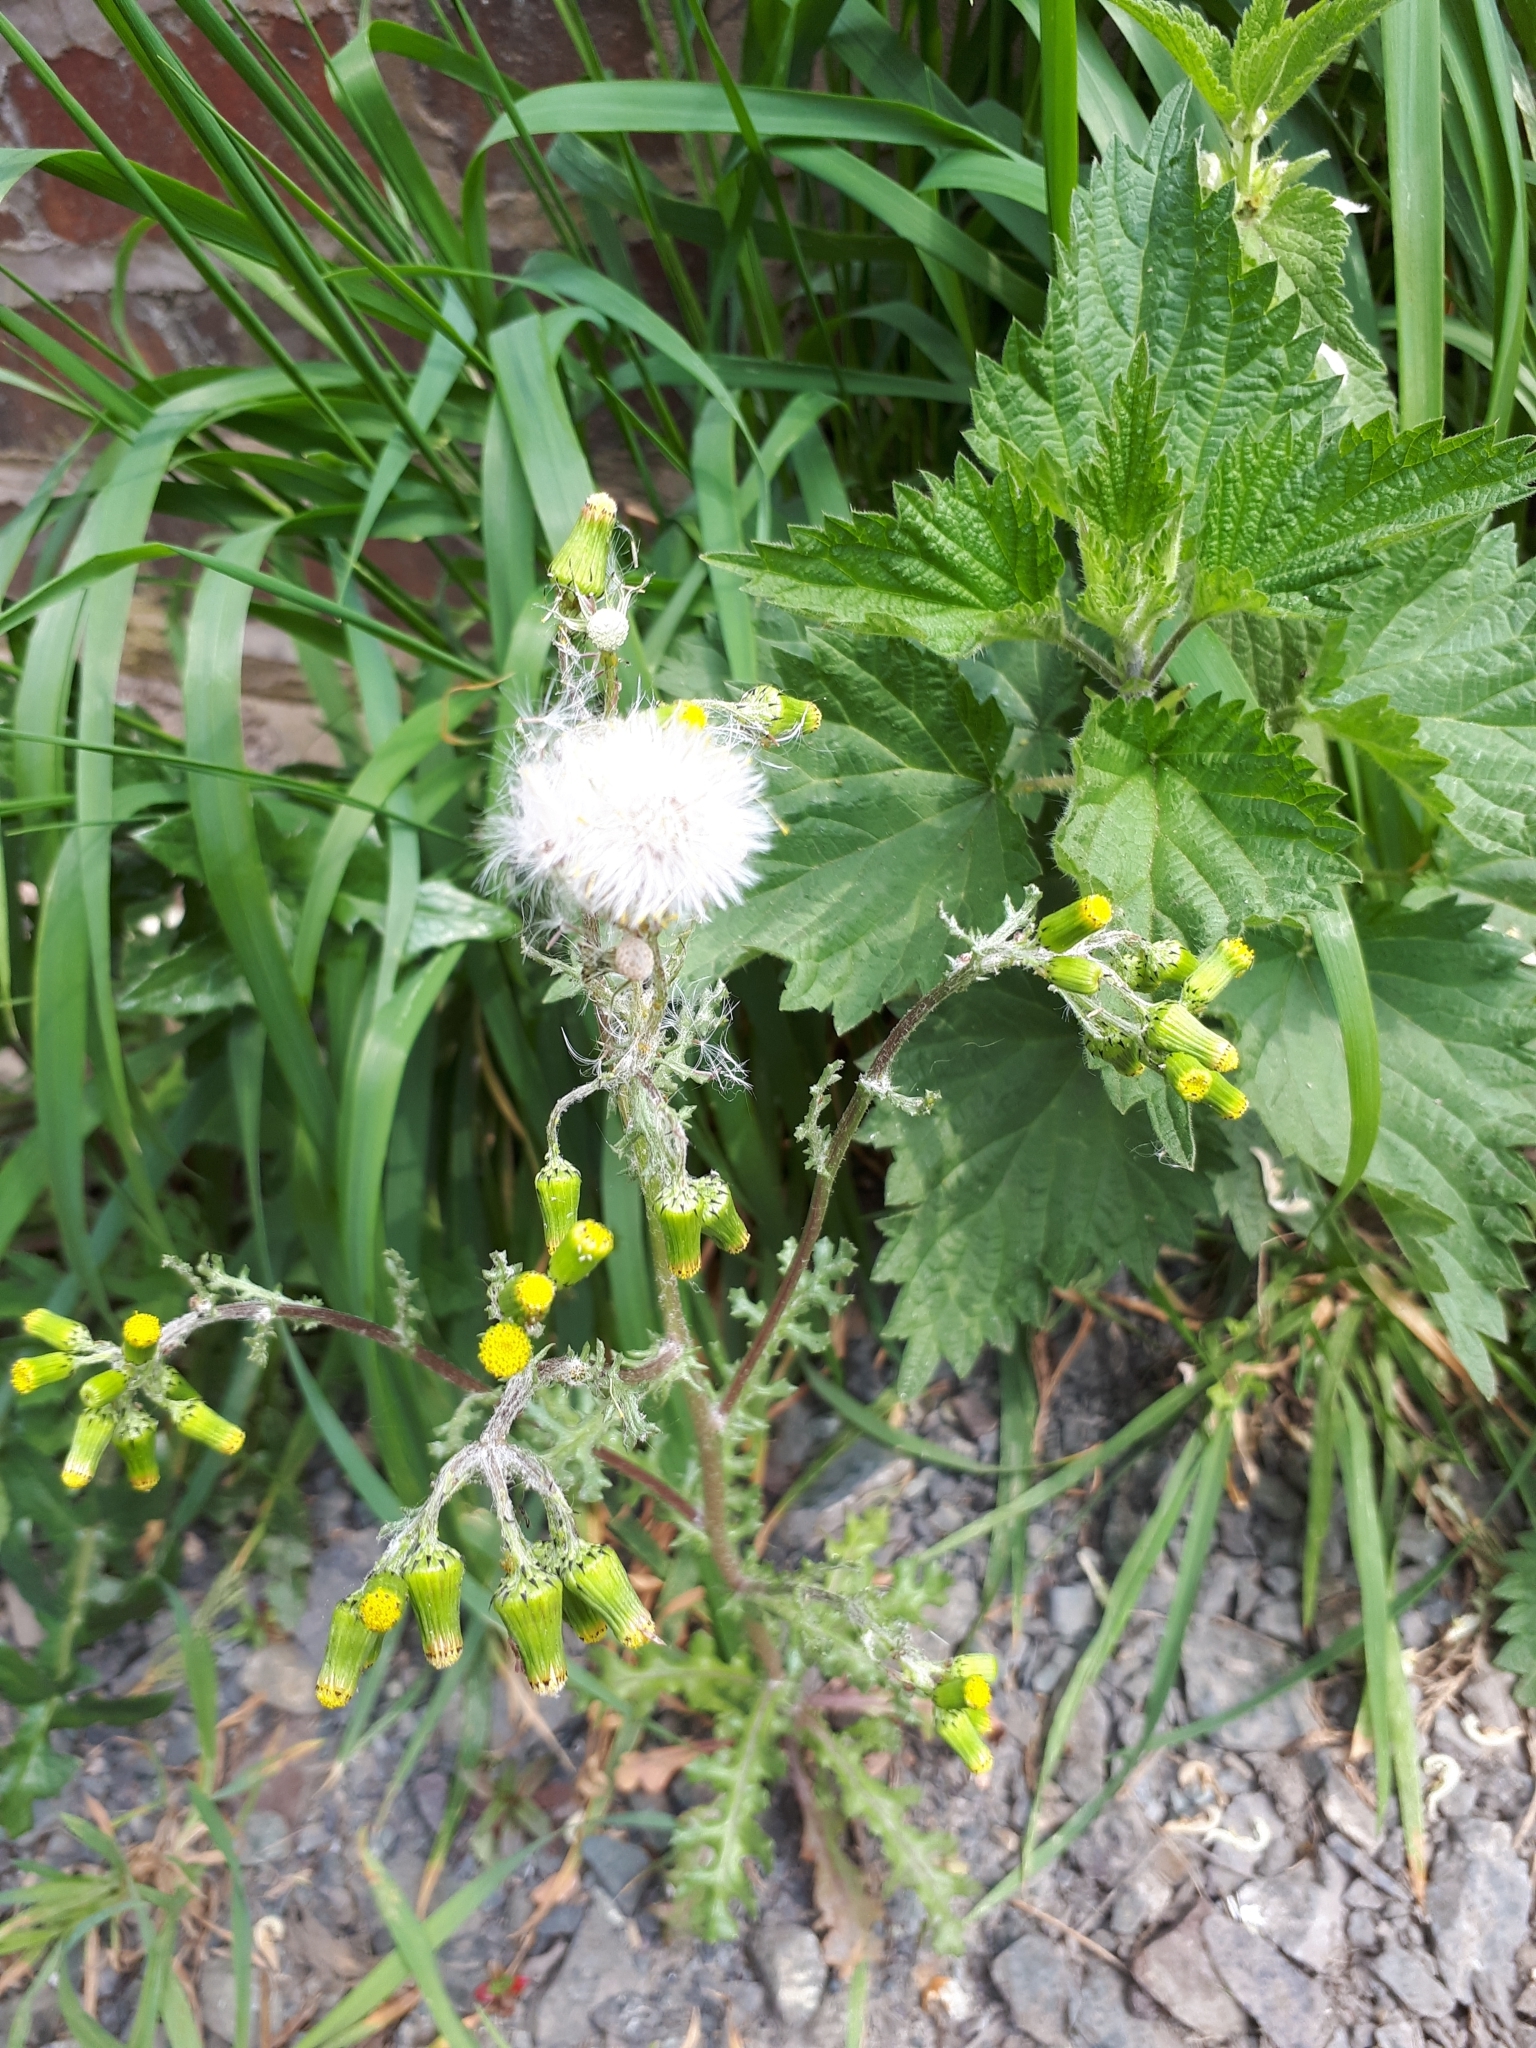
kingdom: Plantae
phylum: Tracheophyta
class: Magnoliopsida
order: Asterales
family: Asteraceae
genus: Senecio
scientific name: Senecio vulgaris
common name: Old-man-in-the-spring
